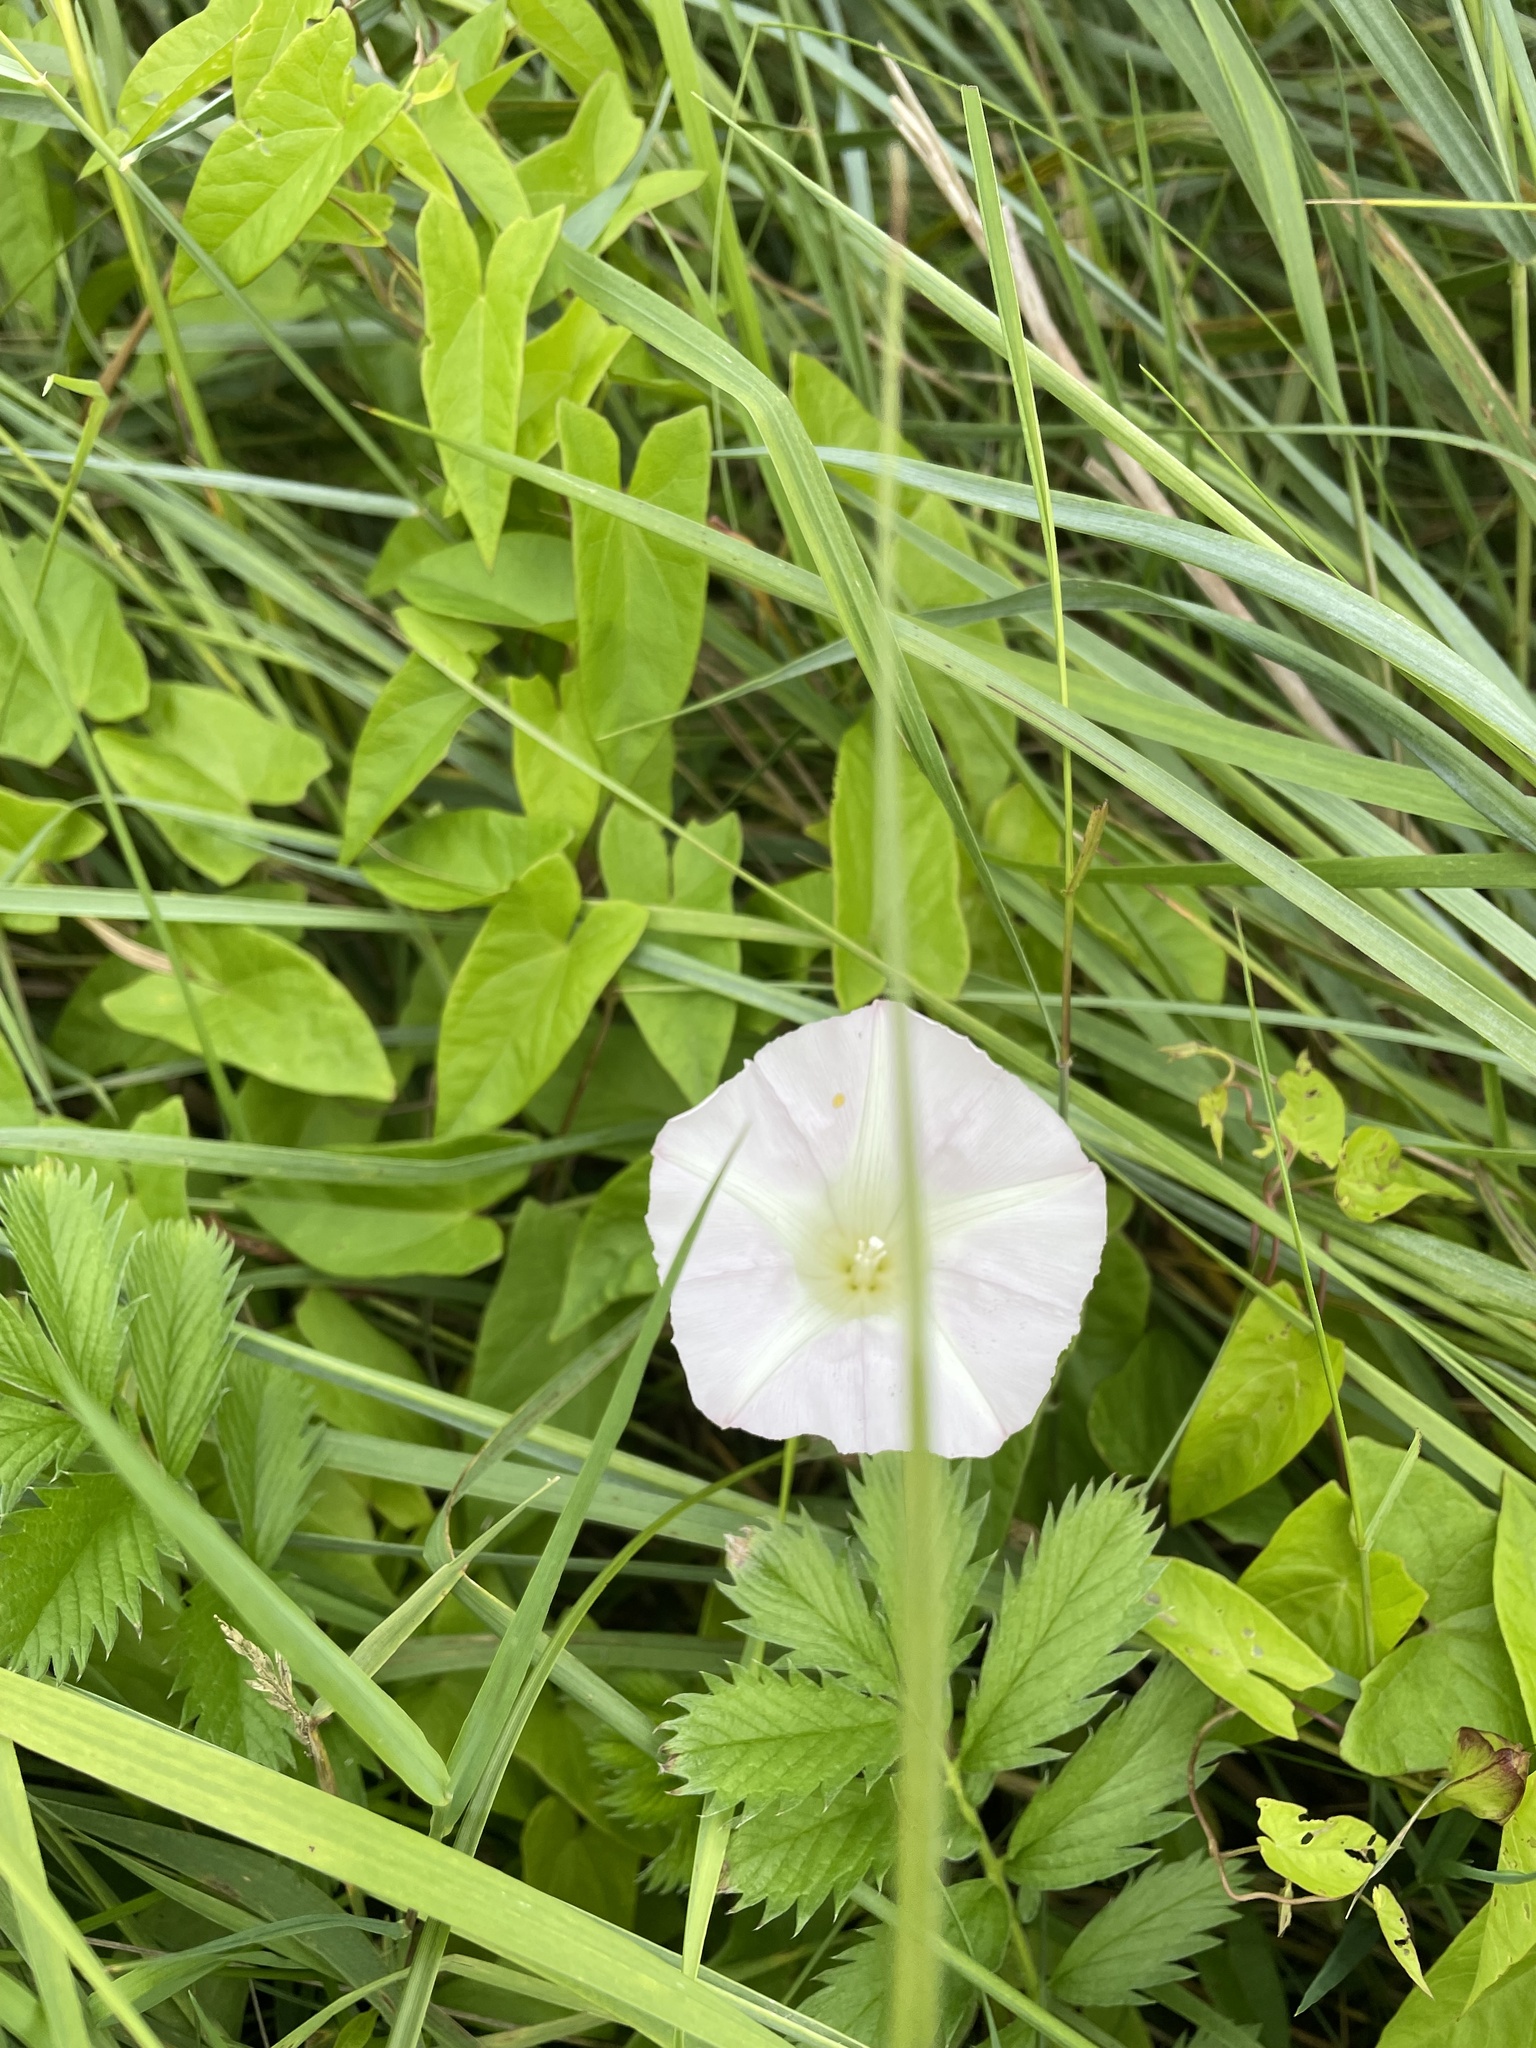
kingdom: Plantae
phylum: Tracheophyta
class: Magnoliopsida
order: Solanales
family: Convolvulaceae
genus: Calystegia
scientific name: Calystegia sepium
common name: Hedge bindweed
